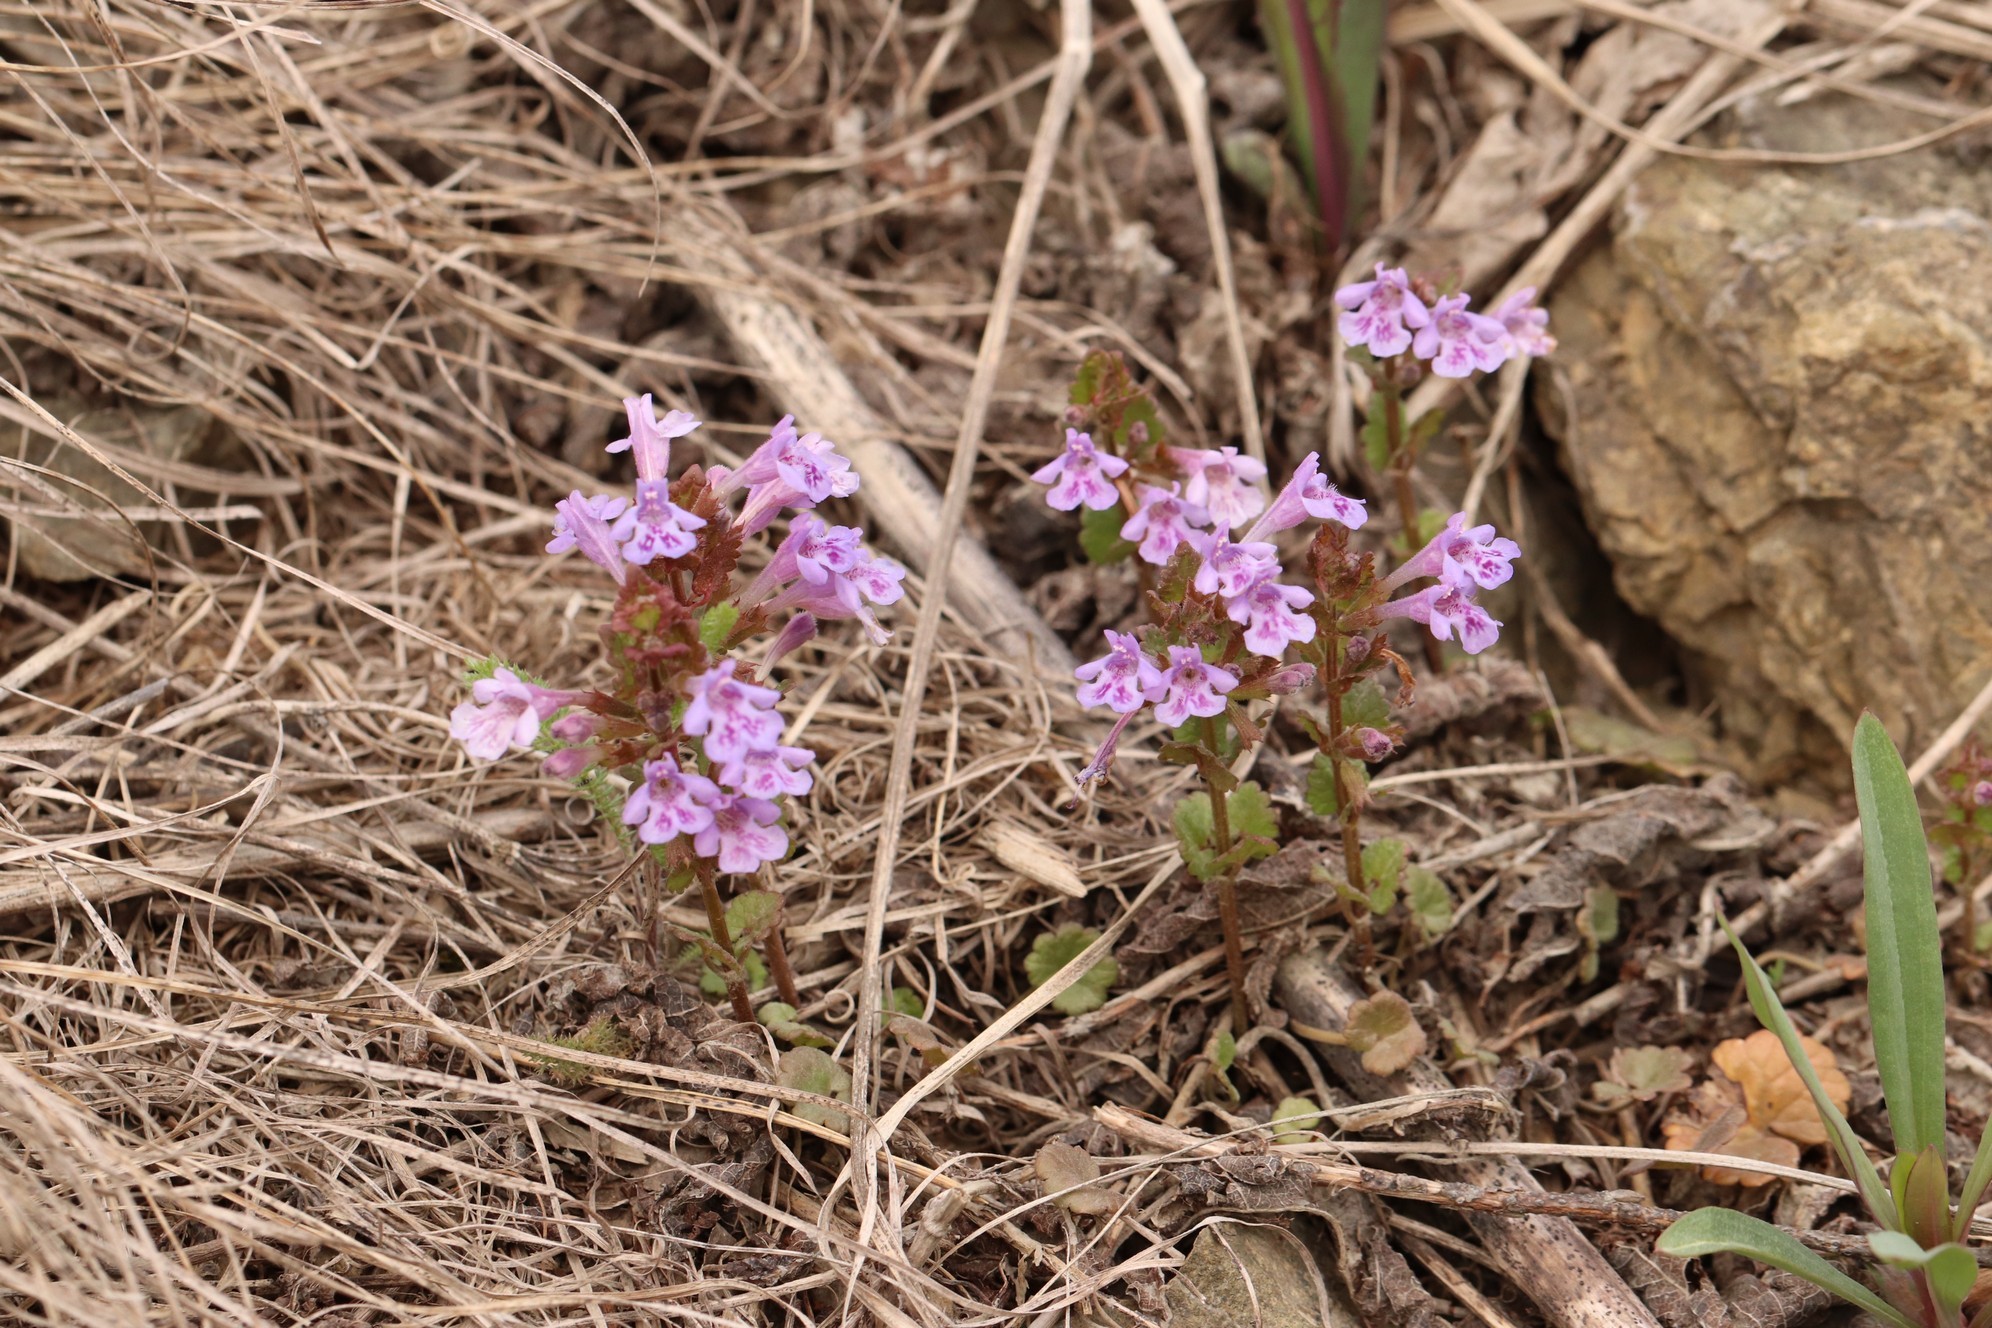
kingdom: Plantae
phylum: Tracheophyta
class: Magnoliopsida
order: Lamiales
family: Lamiaceae
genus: Glechoma
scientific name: Glechoma hederacea
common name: Ground ivy
